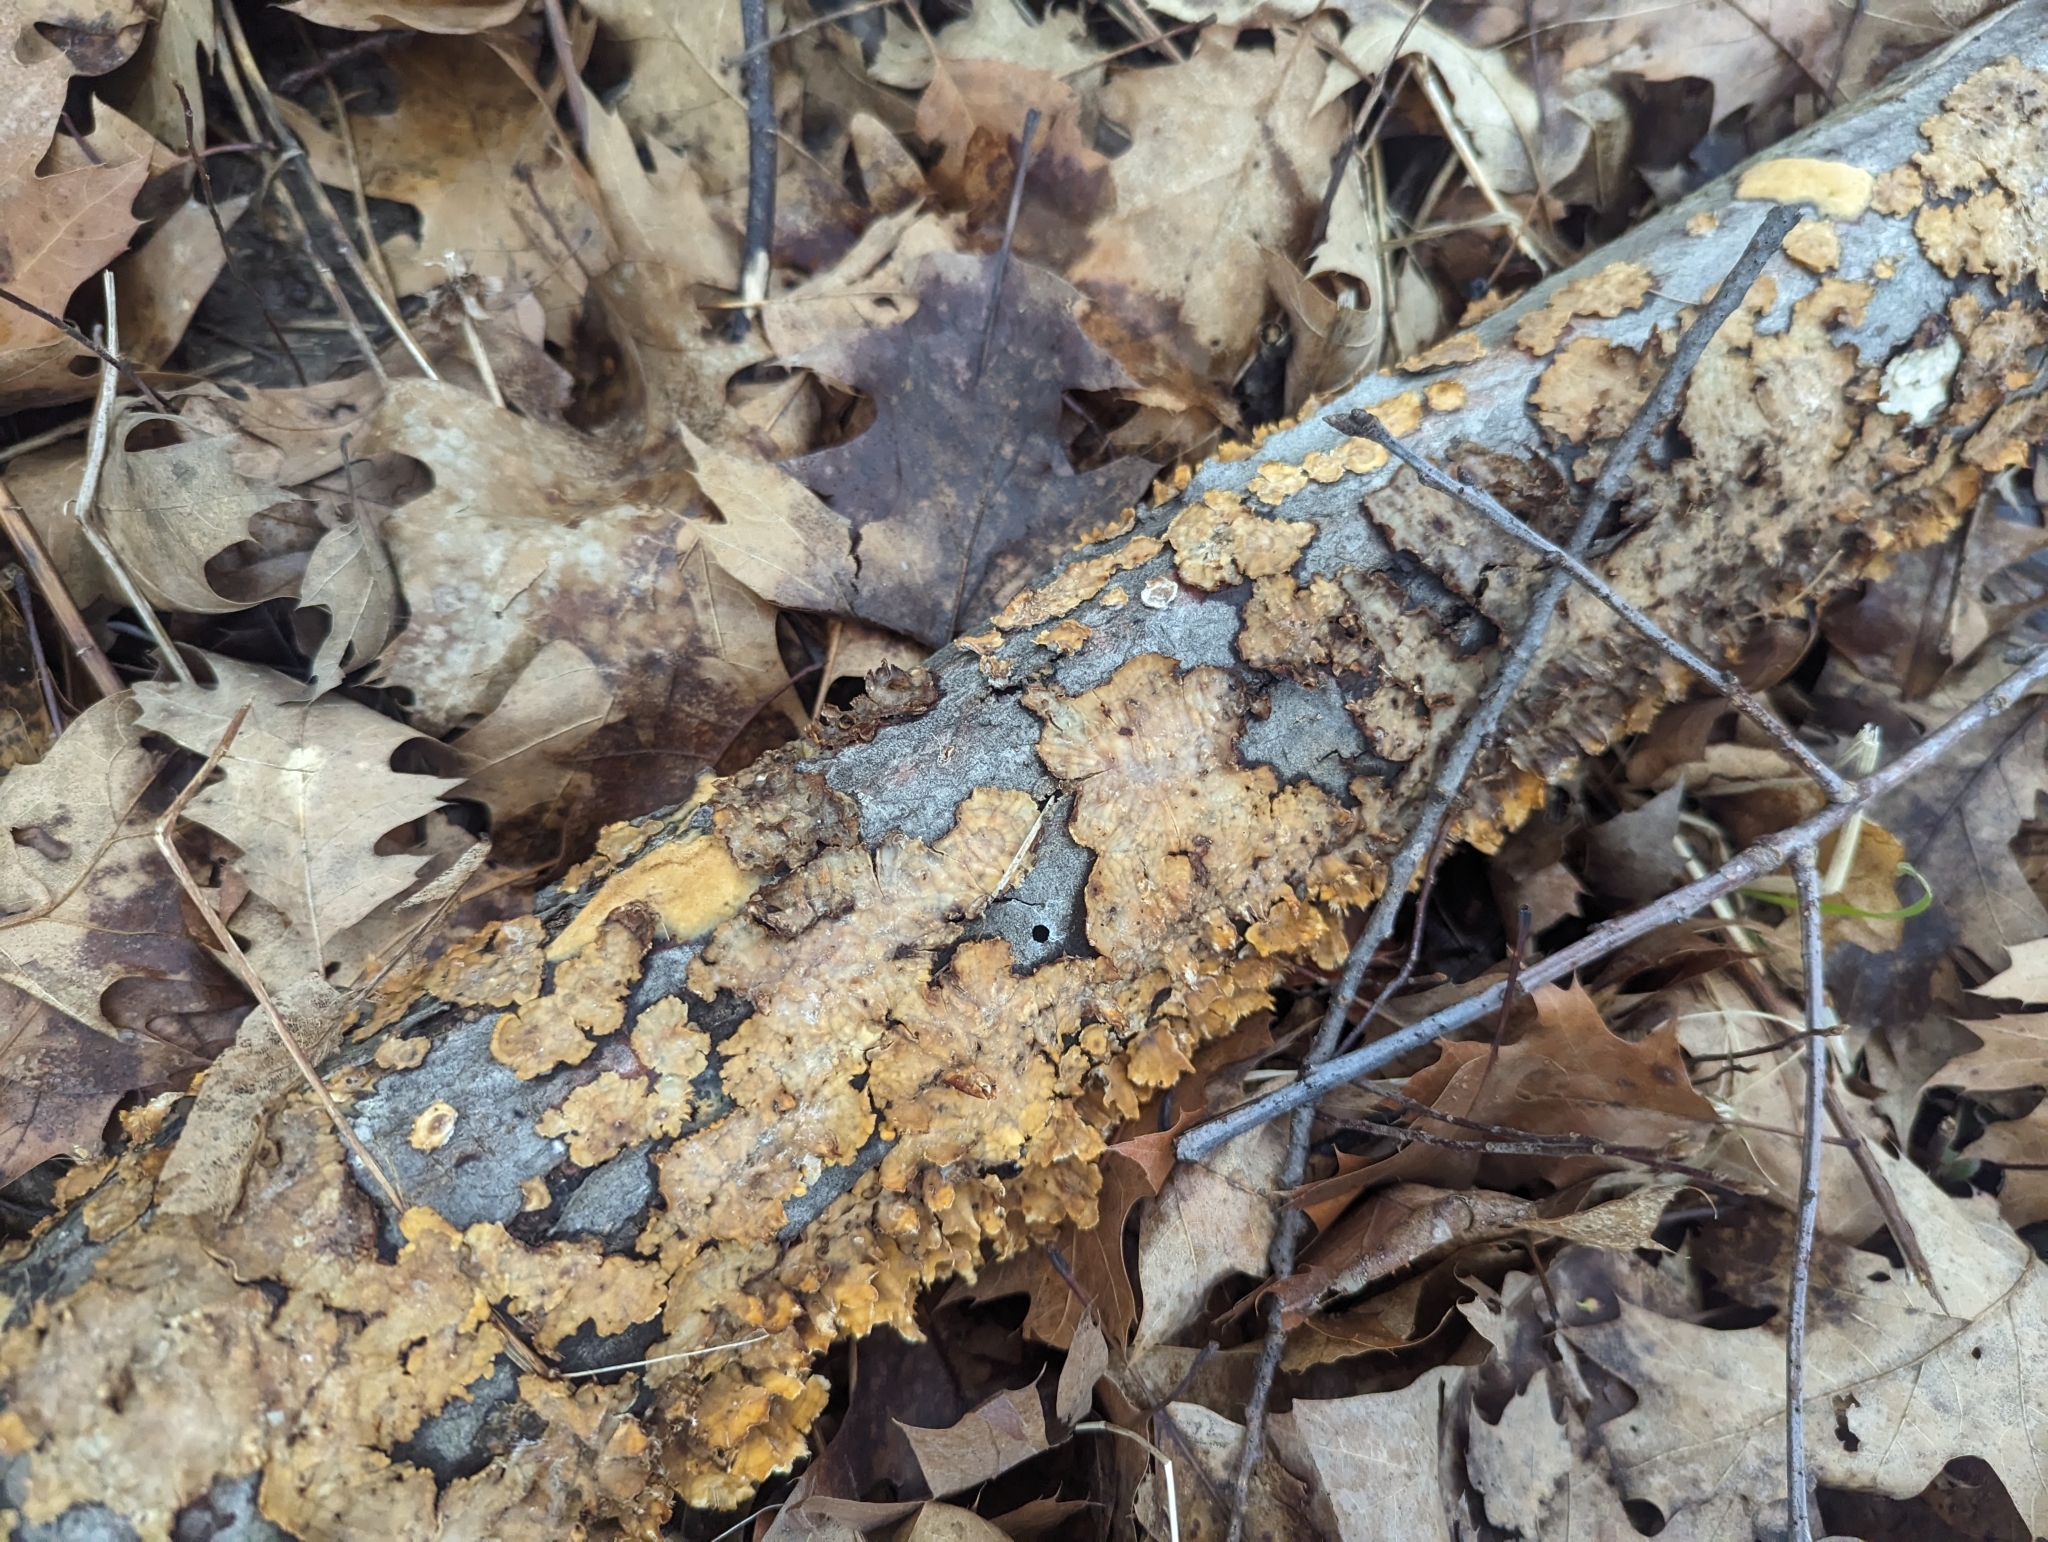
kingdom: Fungi
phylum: Basidiomycota
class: Agaricomycetes
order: Russulales
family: Stereaceae
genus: Stereum
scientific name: Stereum complicatum
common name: Crowded parchment
